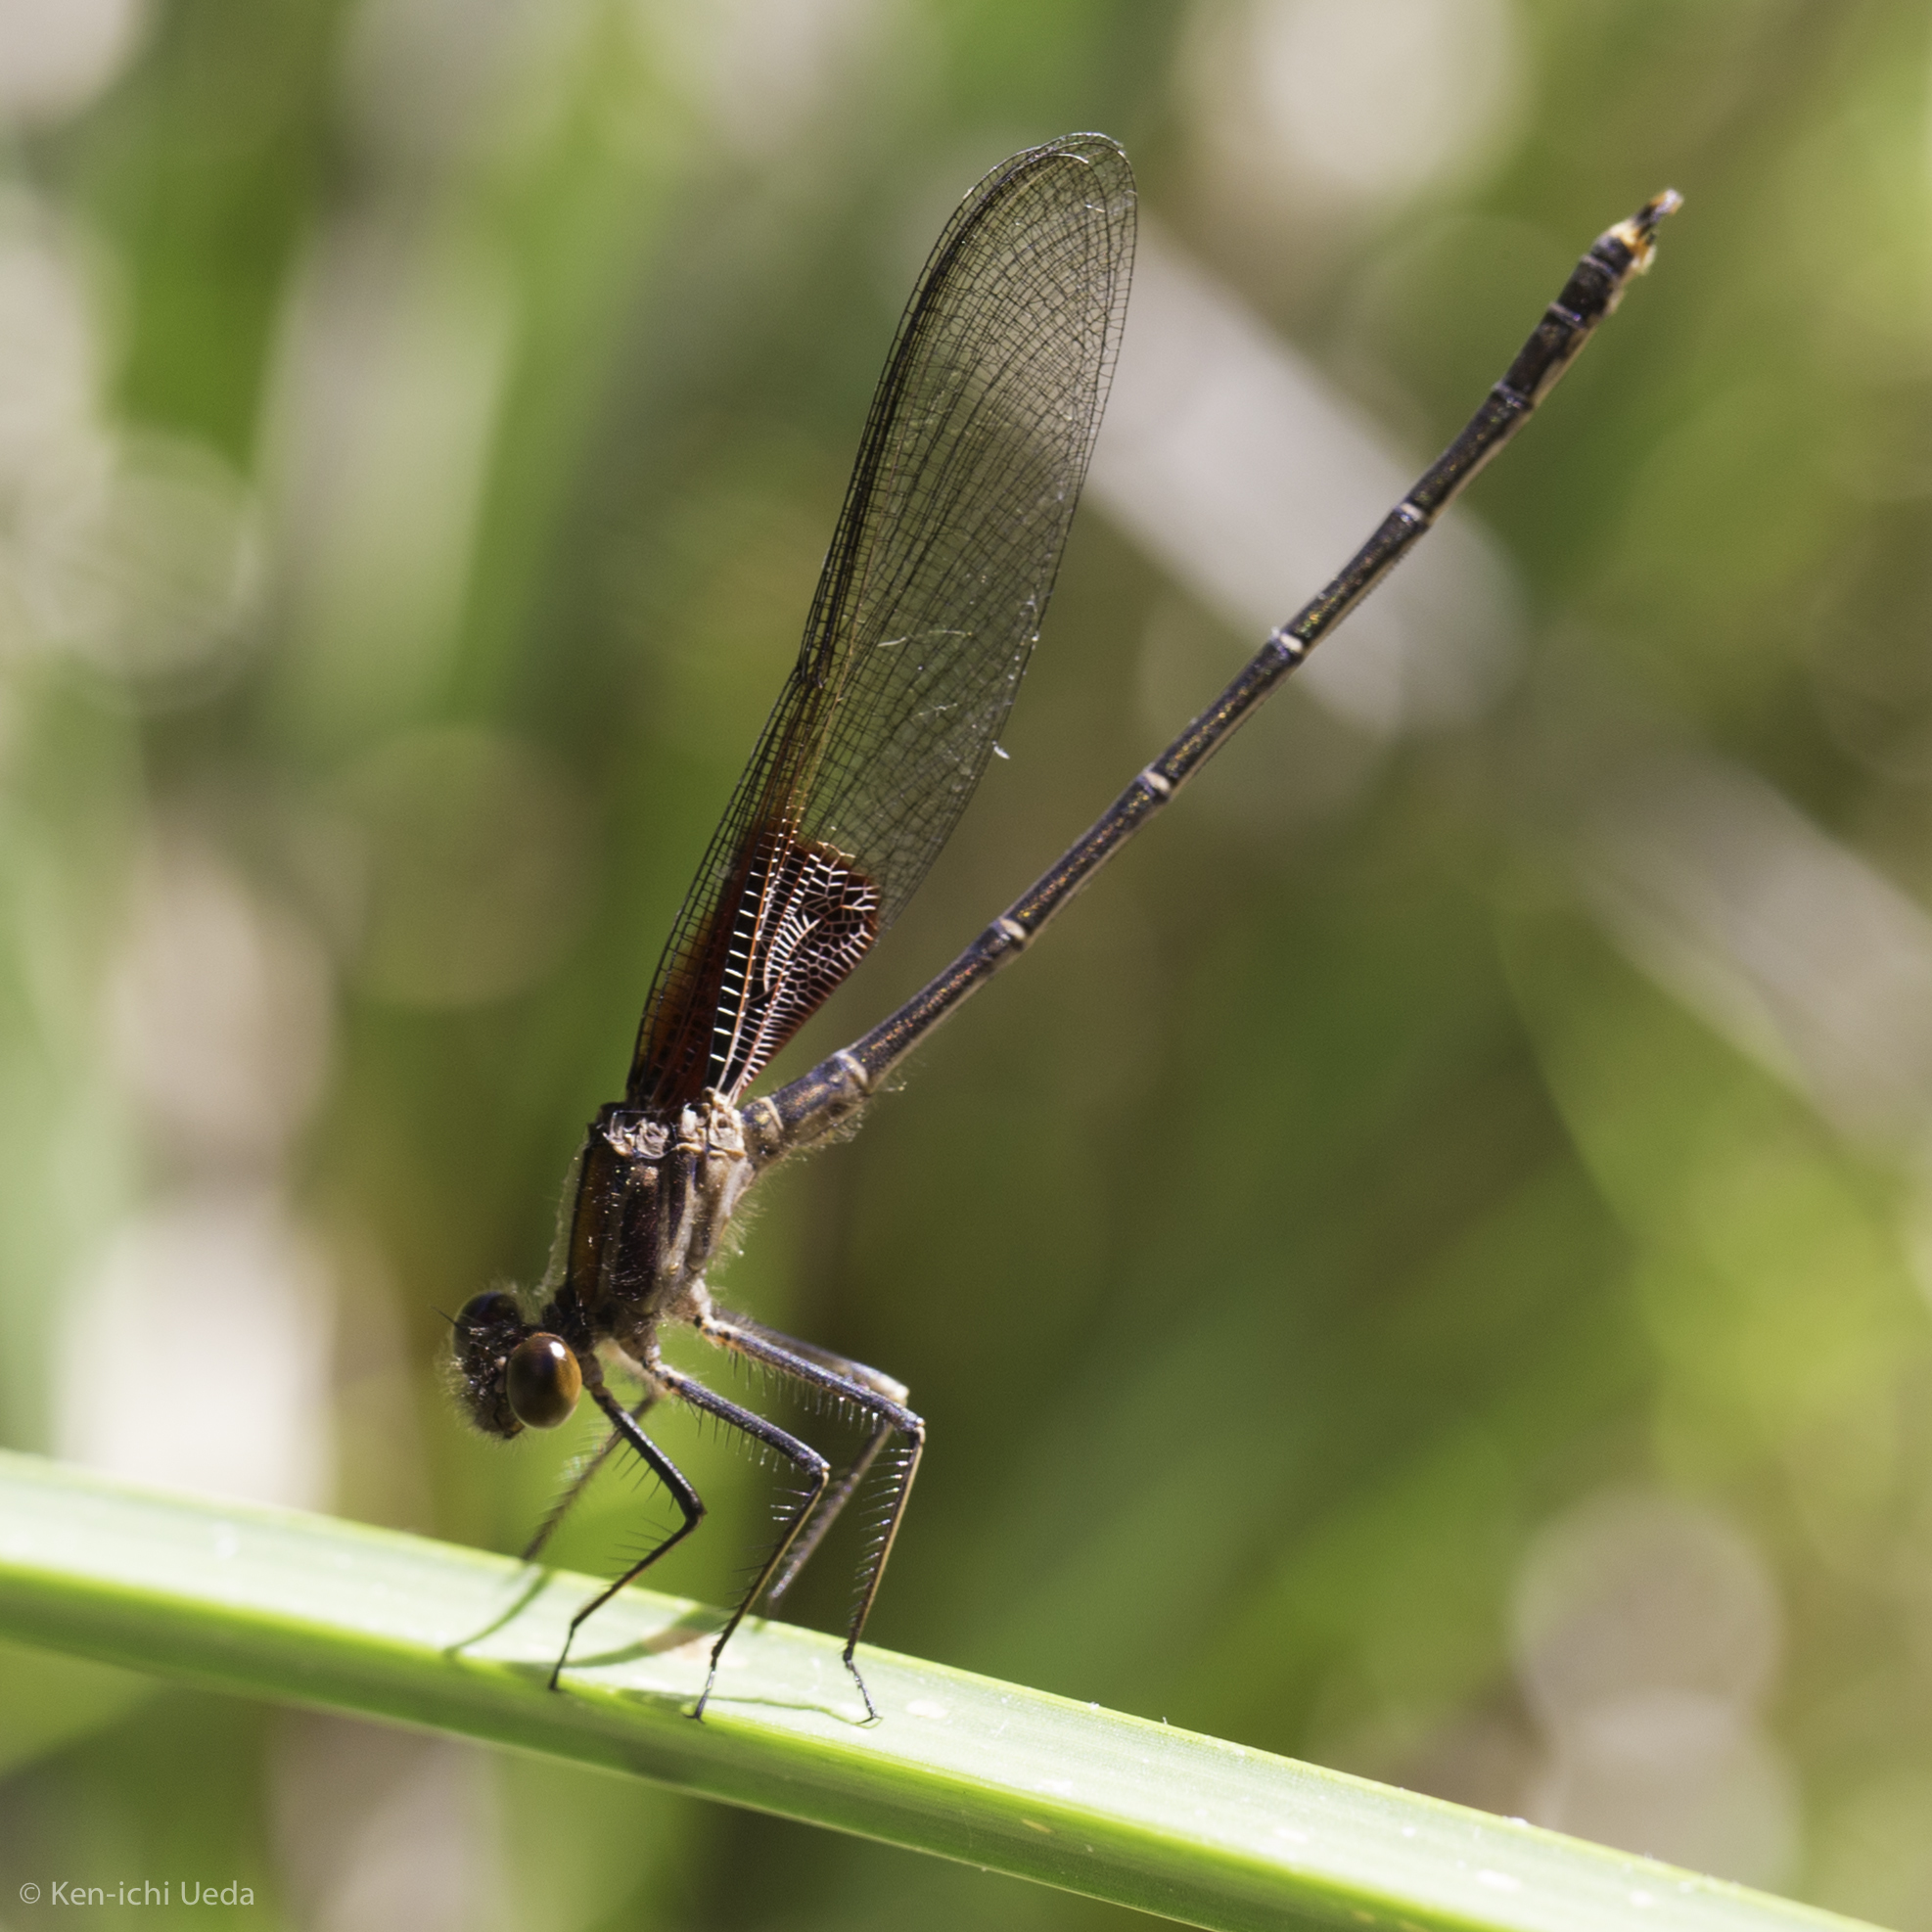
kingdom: Animalia
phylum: Arthropoda
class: Insecta
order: Odonata
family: Calopterygidae
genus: Hetaerina
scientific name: Hetaerina americana
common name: American rubyspot
